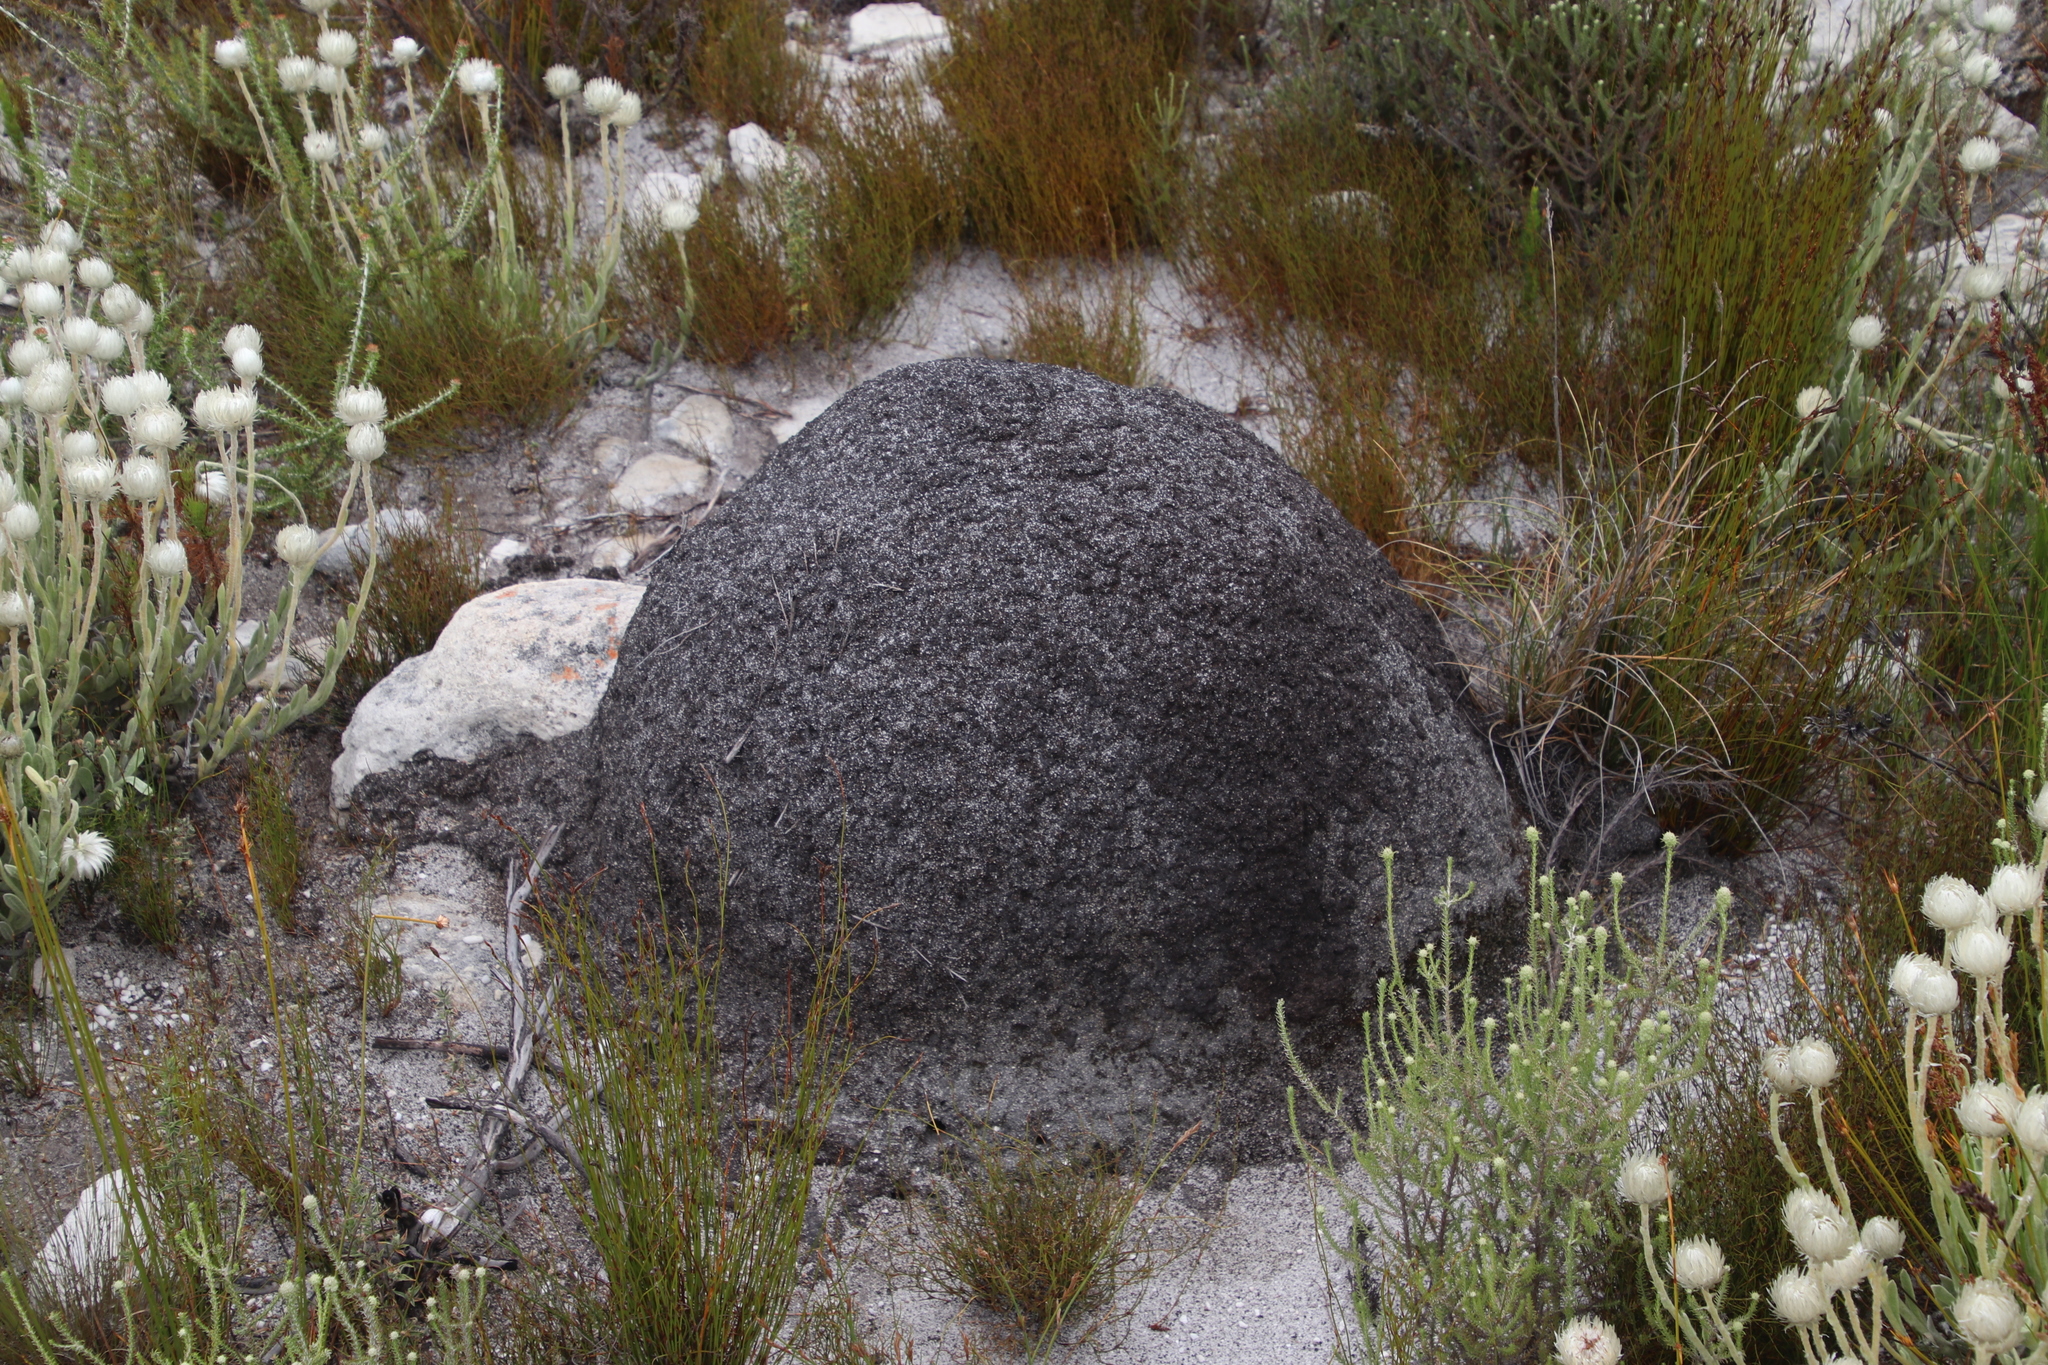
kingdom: Animalia
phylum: Arthropoda
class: Insecta
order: Blattodea
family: Termitidae
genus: Amitermes
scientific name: Amitermes hastatus
